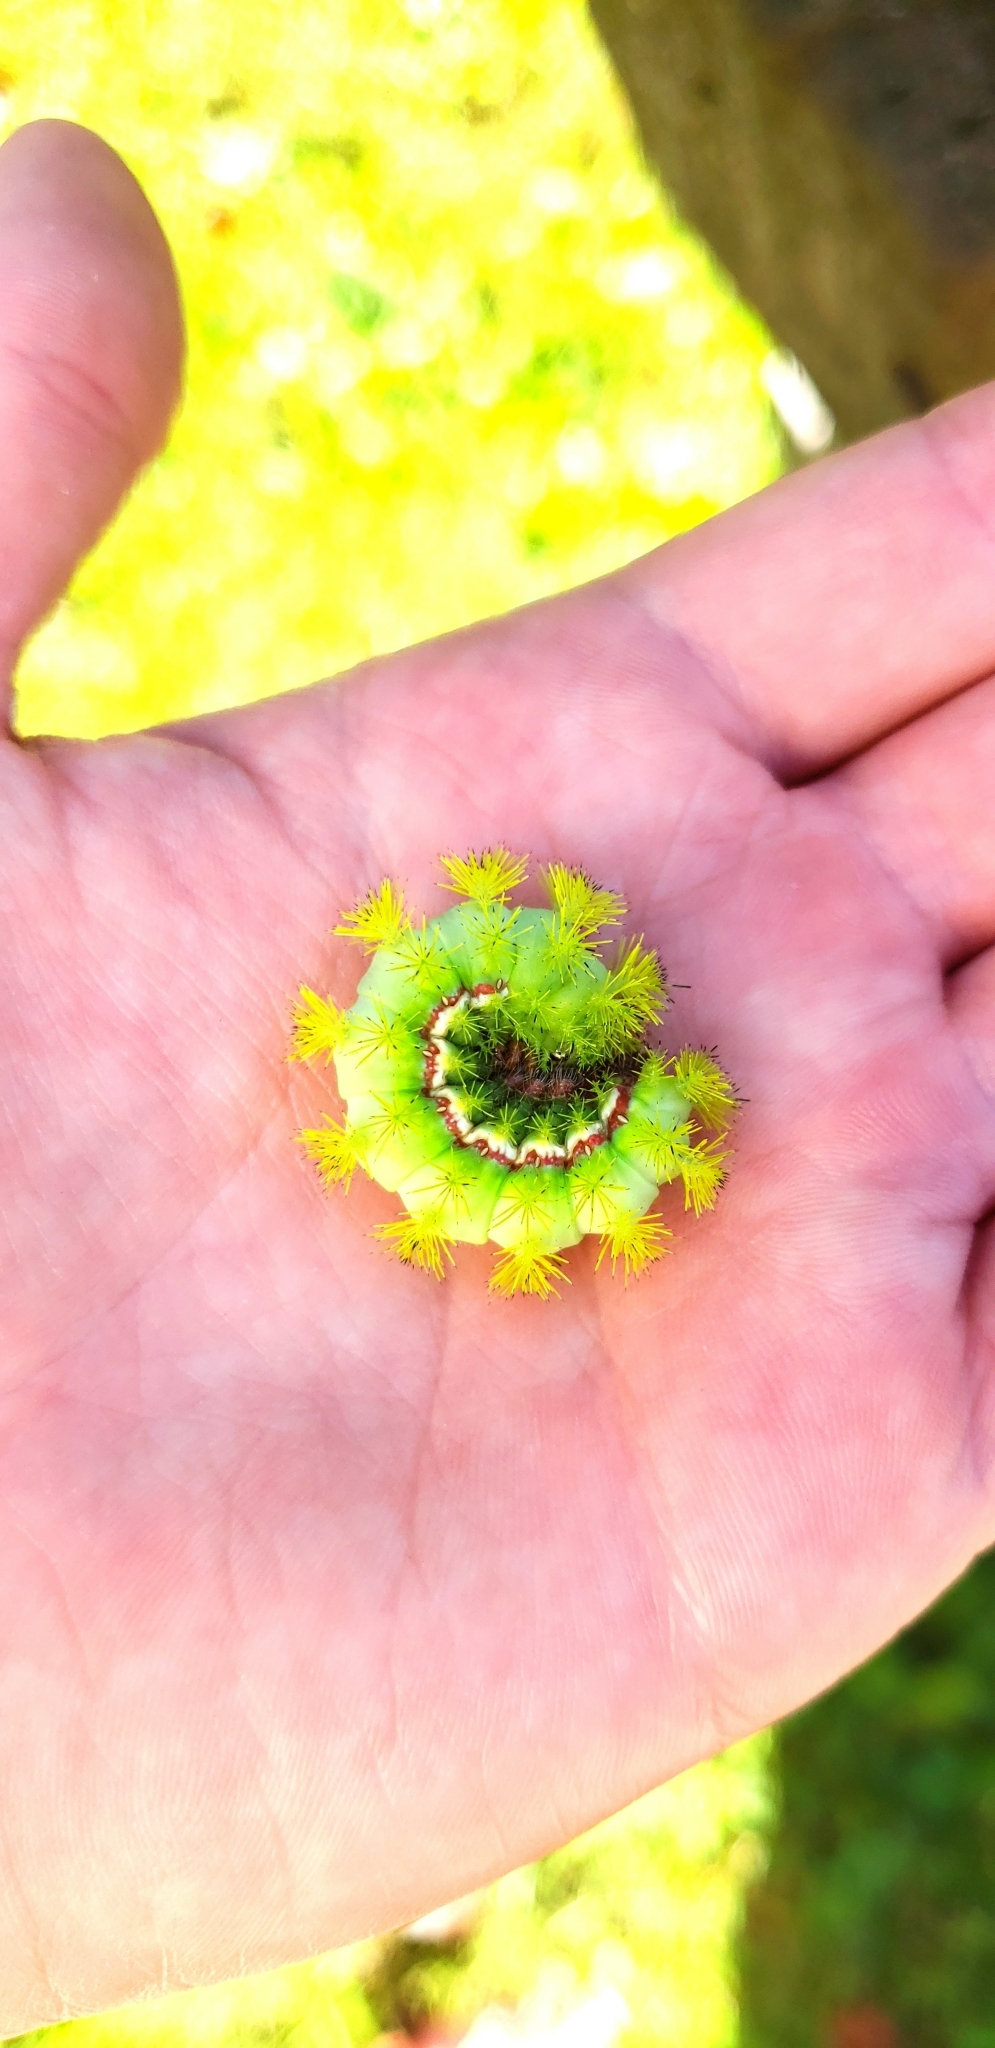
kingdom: Animalia
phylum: Arthropoda
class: Insecta
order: Lepidoptera
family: Saturniidae
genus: Automeris
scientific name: Automeris io
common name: Io moth
